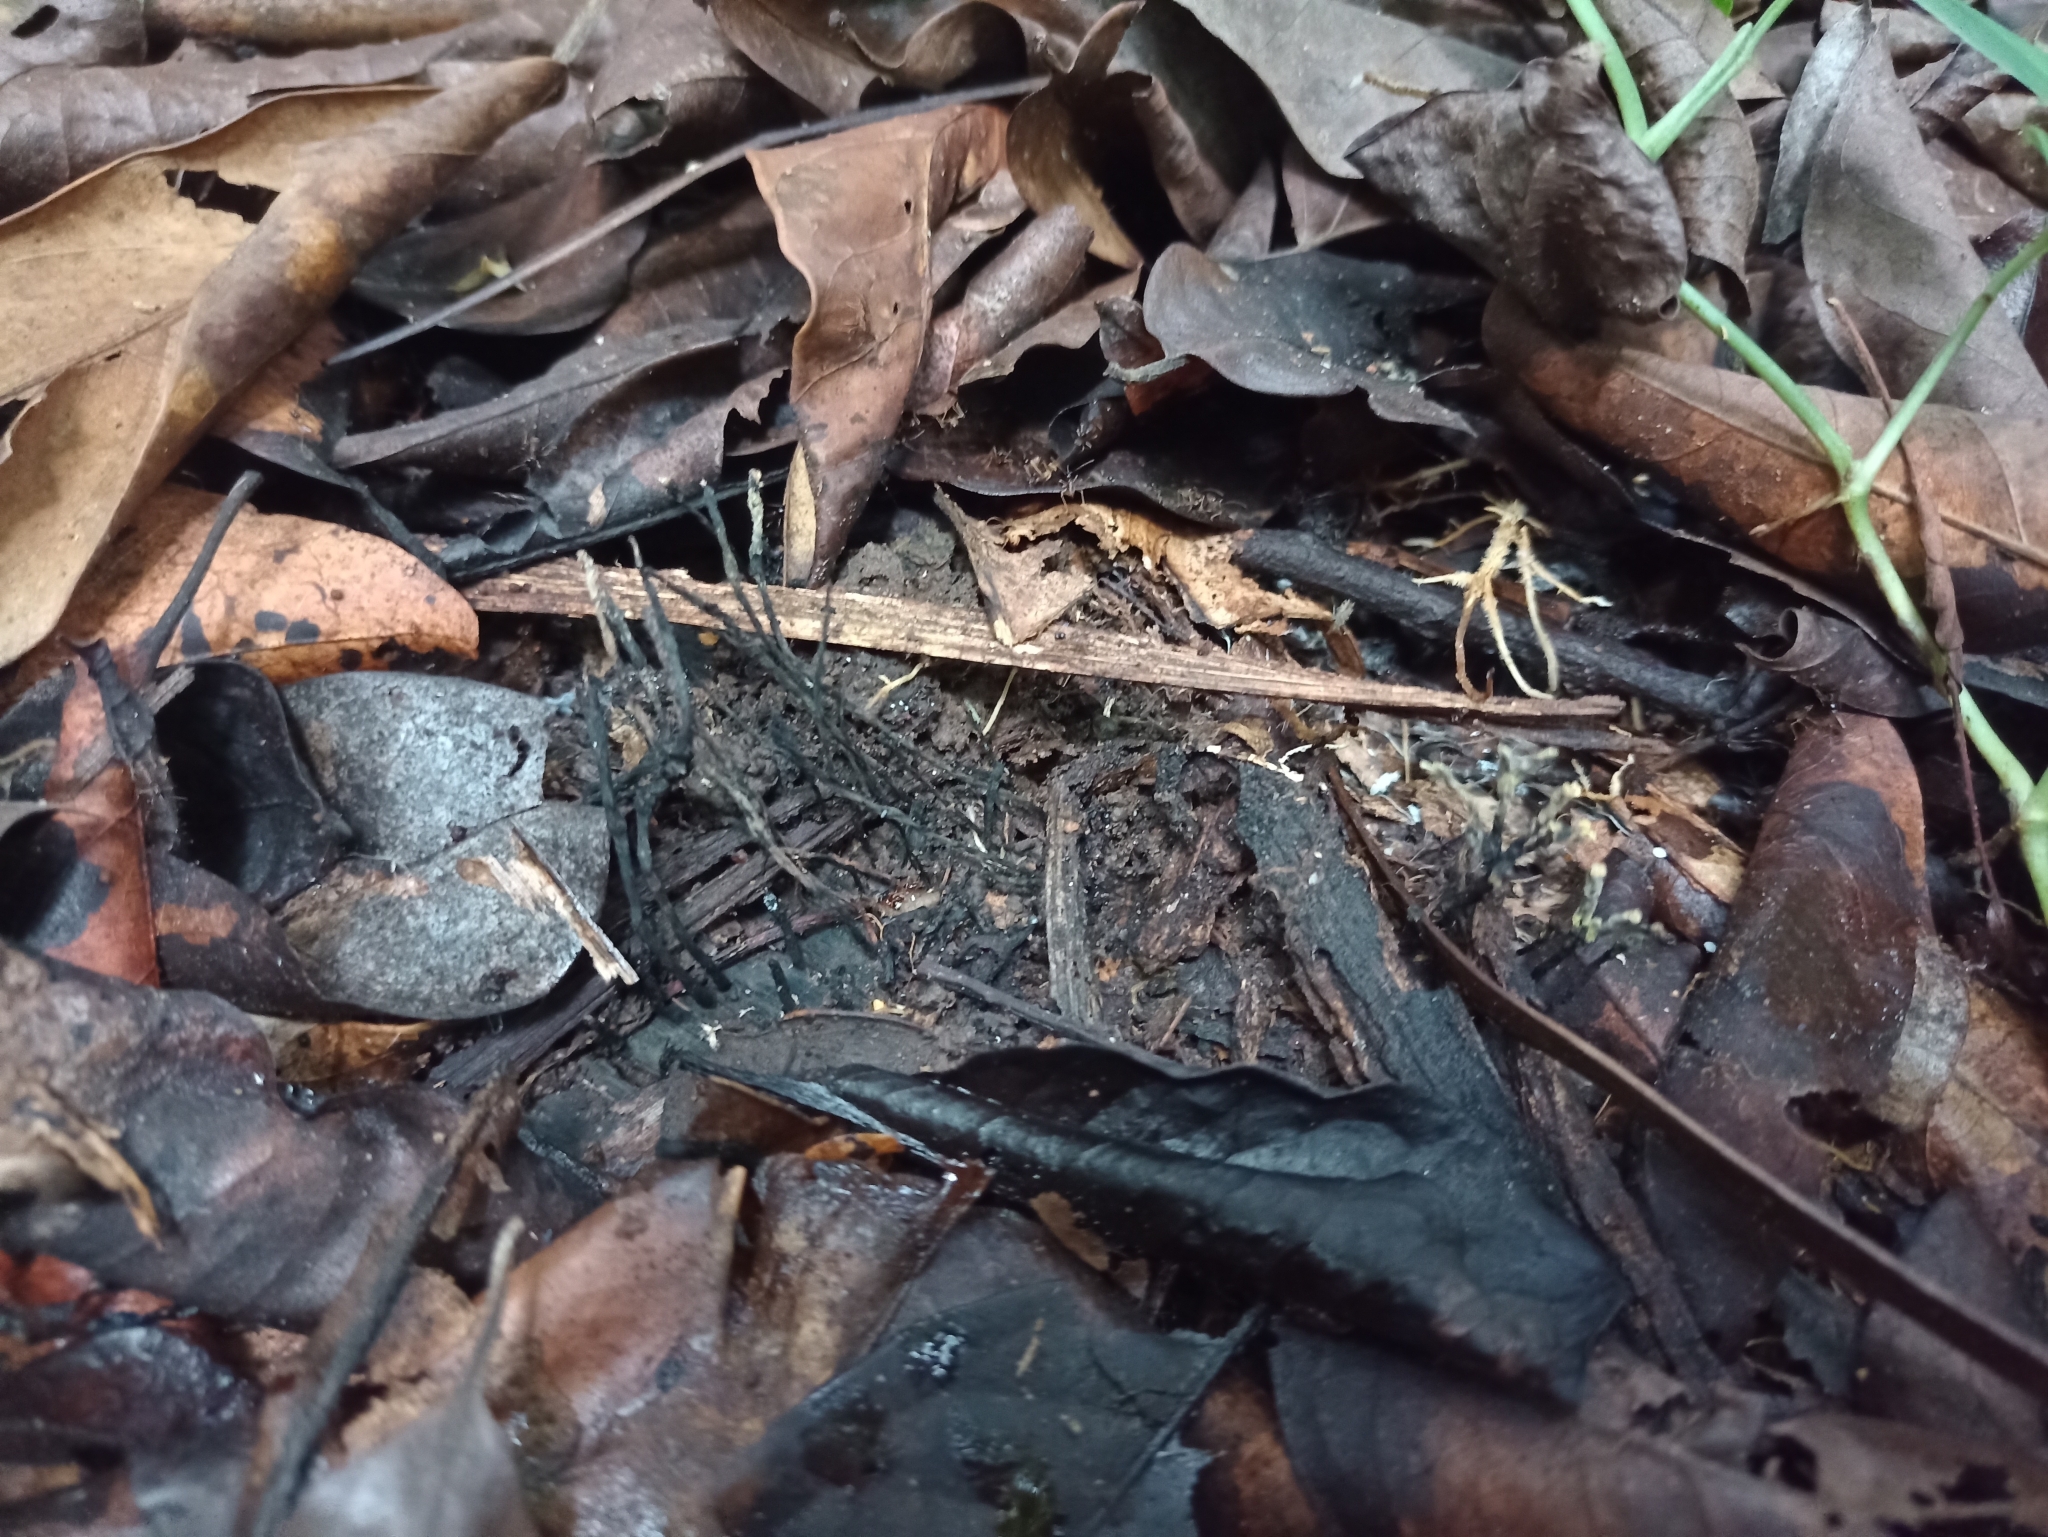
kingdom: Fungi
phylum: Ascomycota
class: Sordariomycetes
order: Xylariales
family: Xylariaceae
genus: Xylaria
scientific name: Xylaria hypoxylon
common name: Candle-snuff fungus
